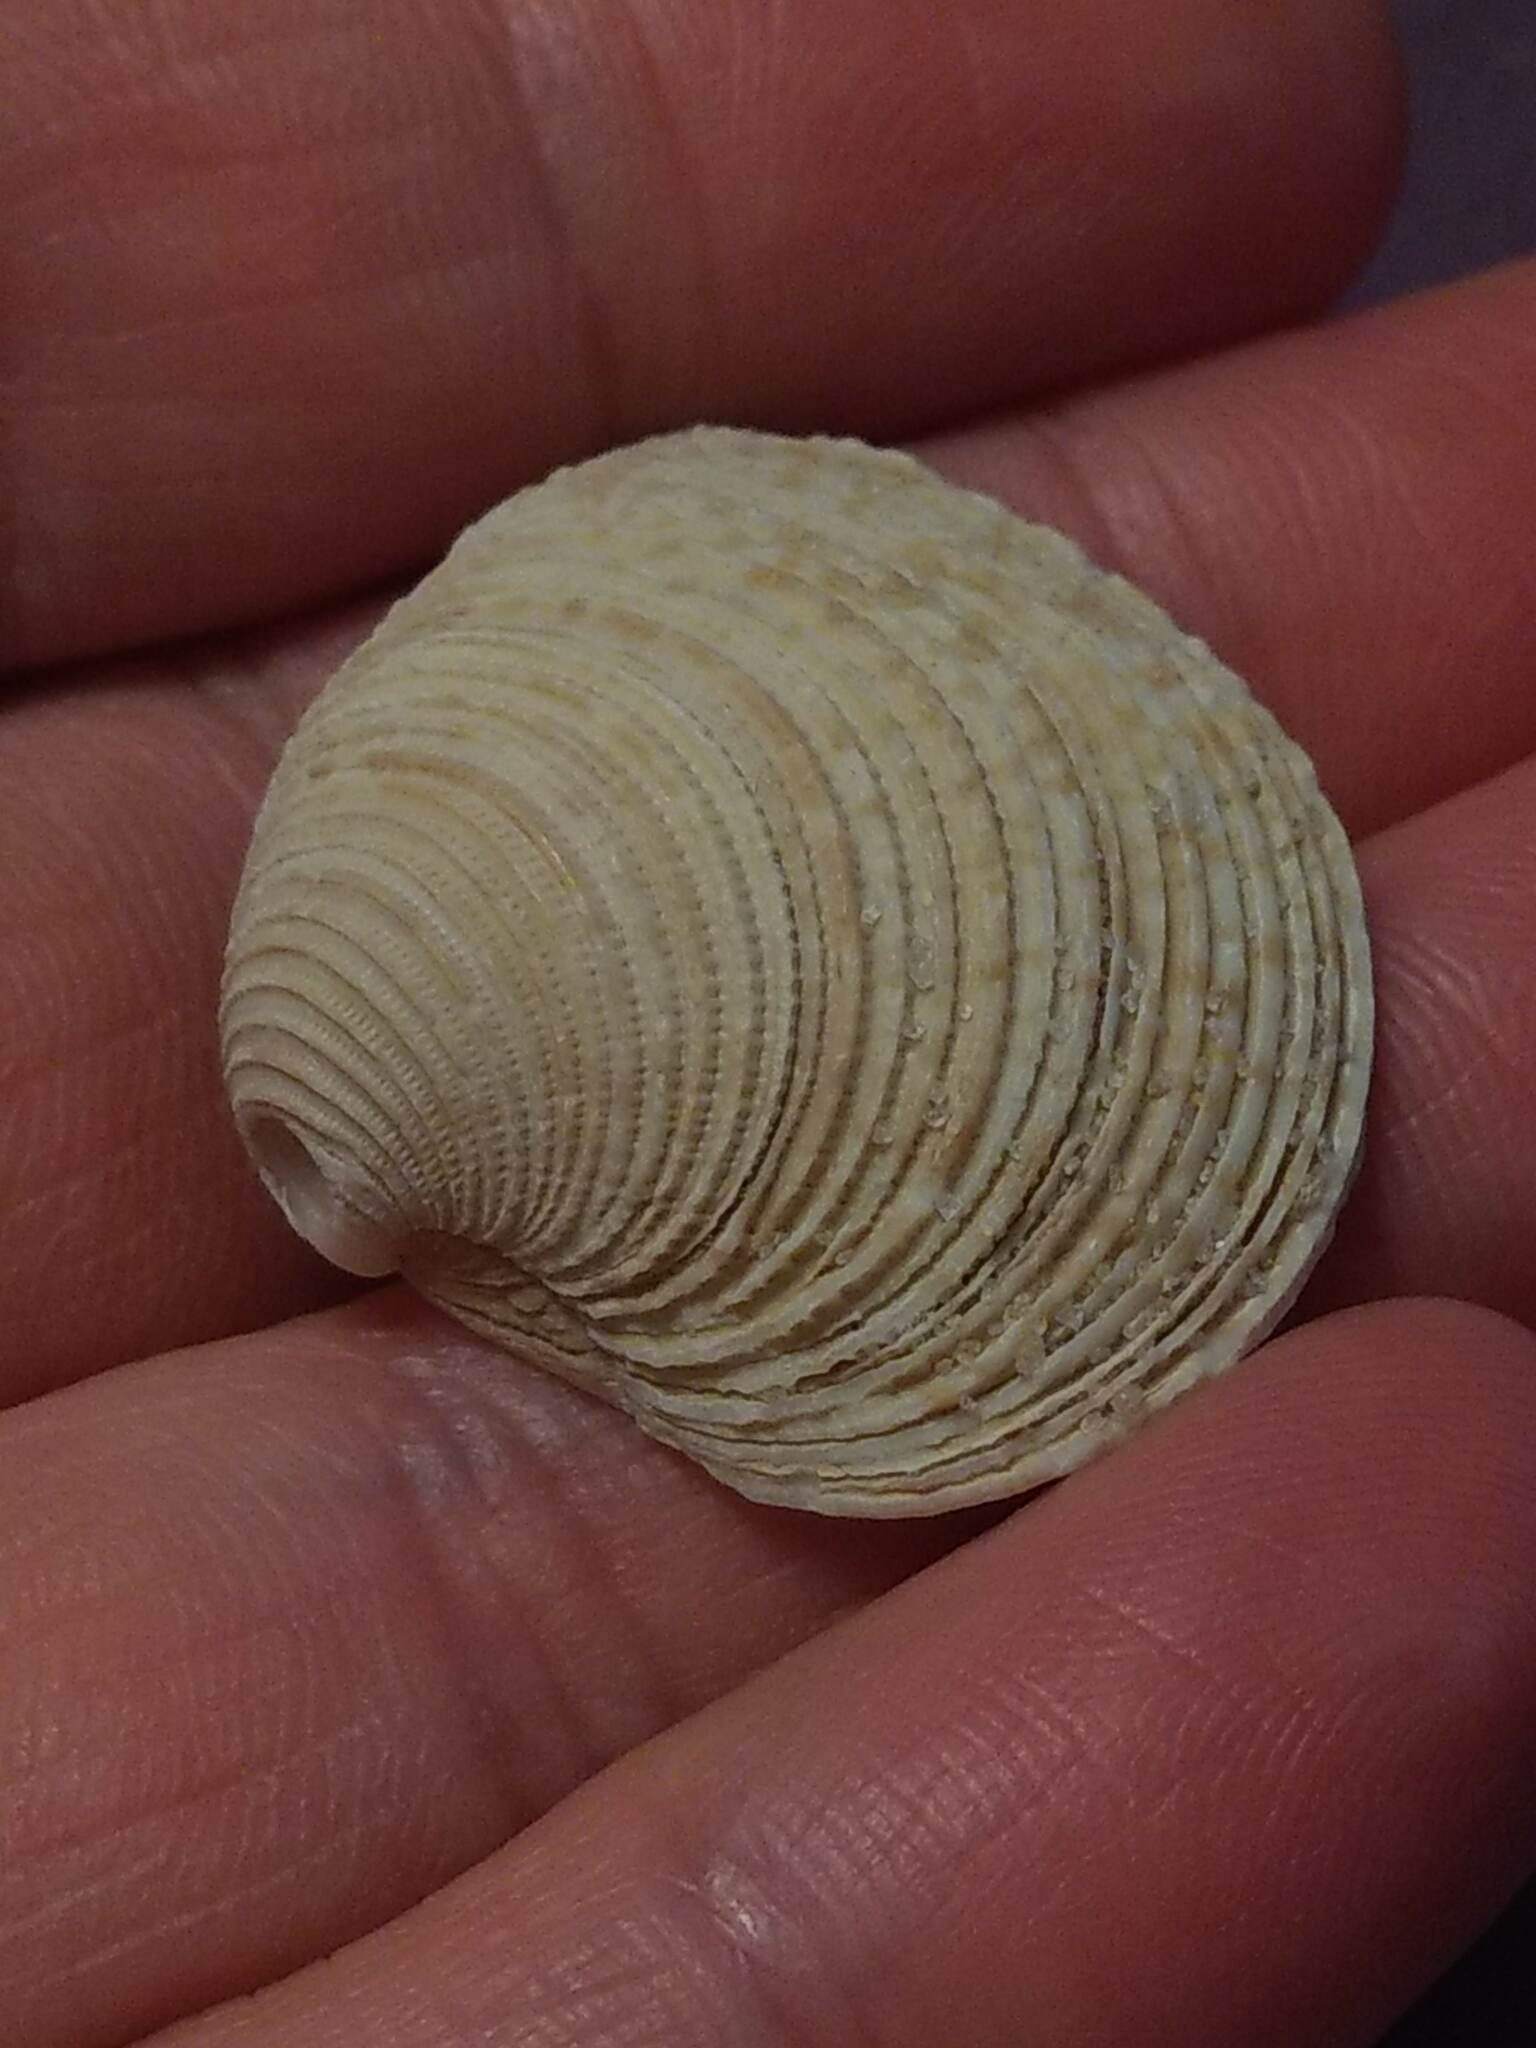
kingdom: Animalia
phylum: Mollusca
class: Bivalvia
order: Venerida
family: Veneridae
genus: Chionopsis
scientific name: Chionopsis intapurpurea
